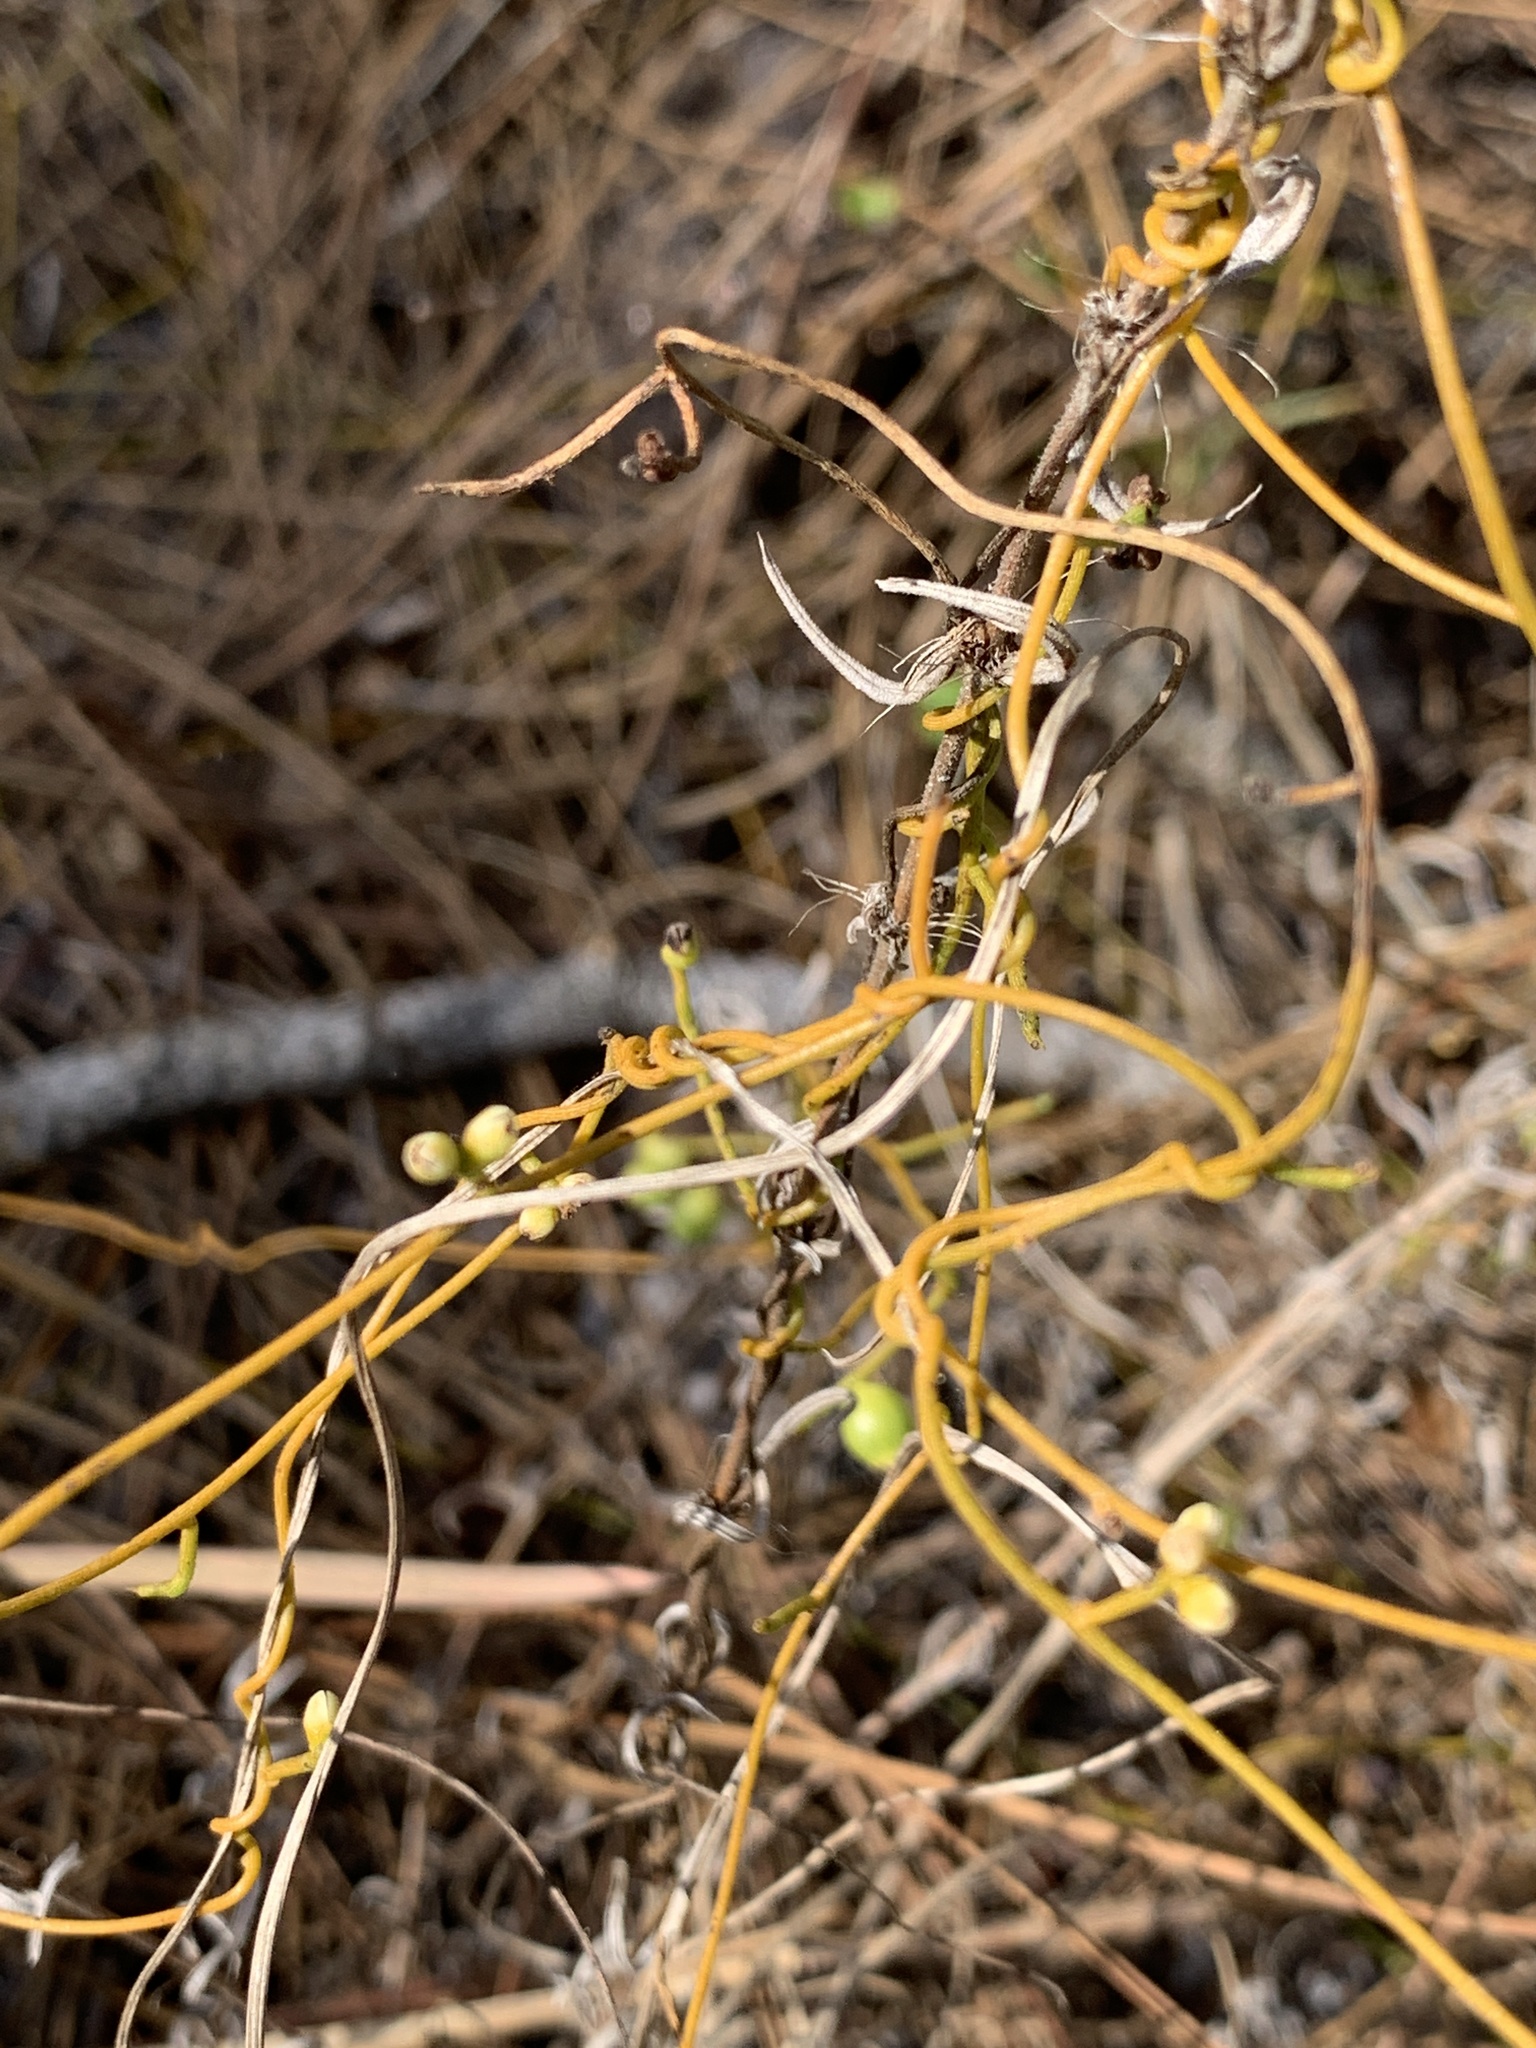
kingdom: Plantae
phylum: Tracheophyta
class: Magnoliopsida
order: Laurales
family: Lauraceae
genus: Cassytha
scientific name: Cassytha filiformis
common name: Dodder-laurel
